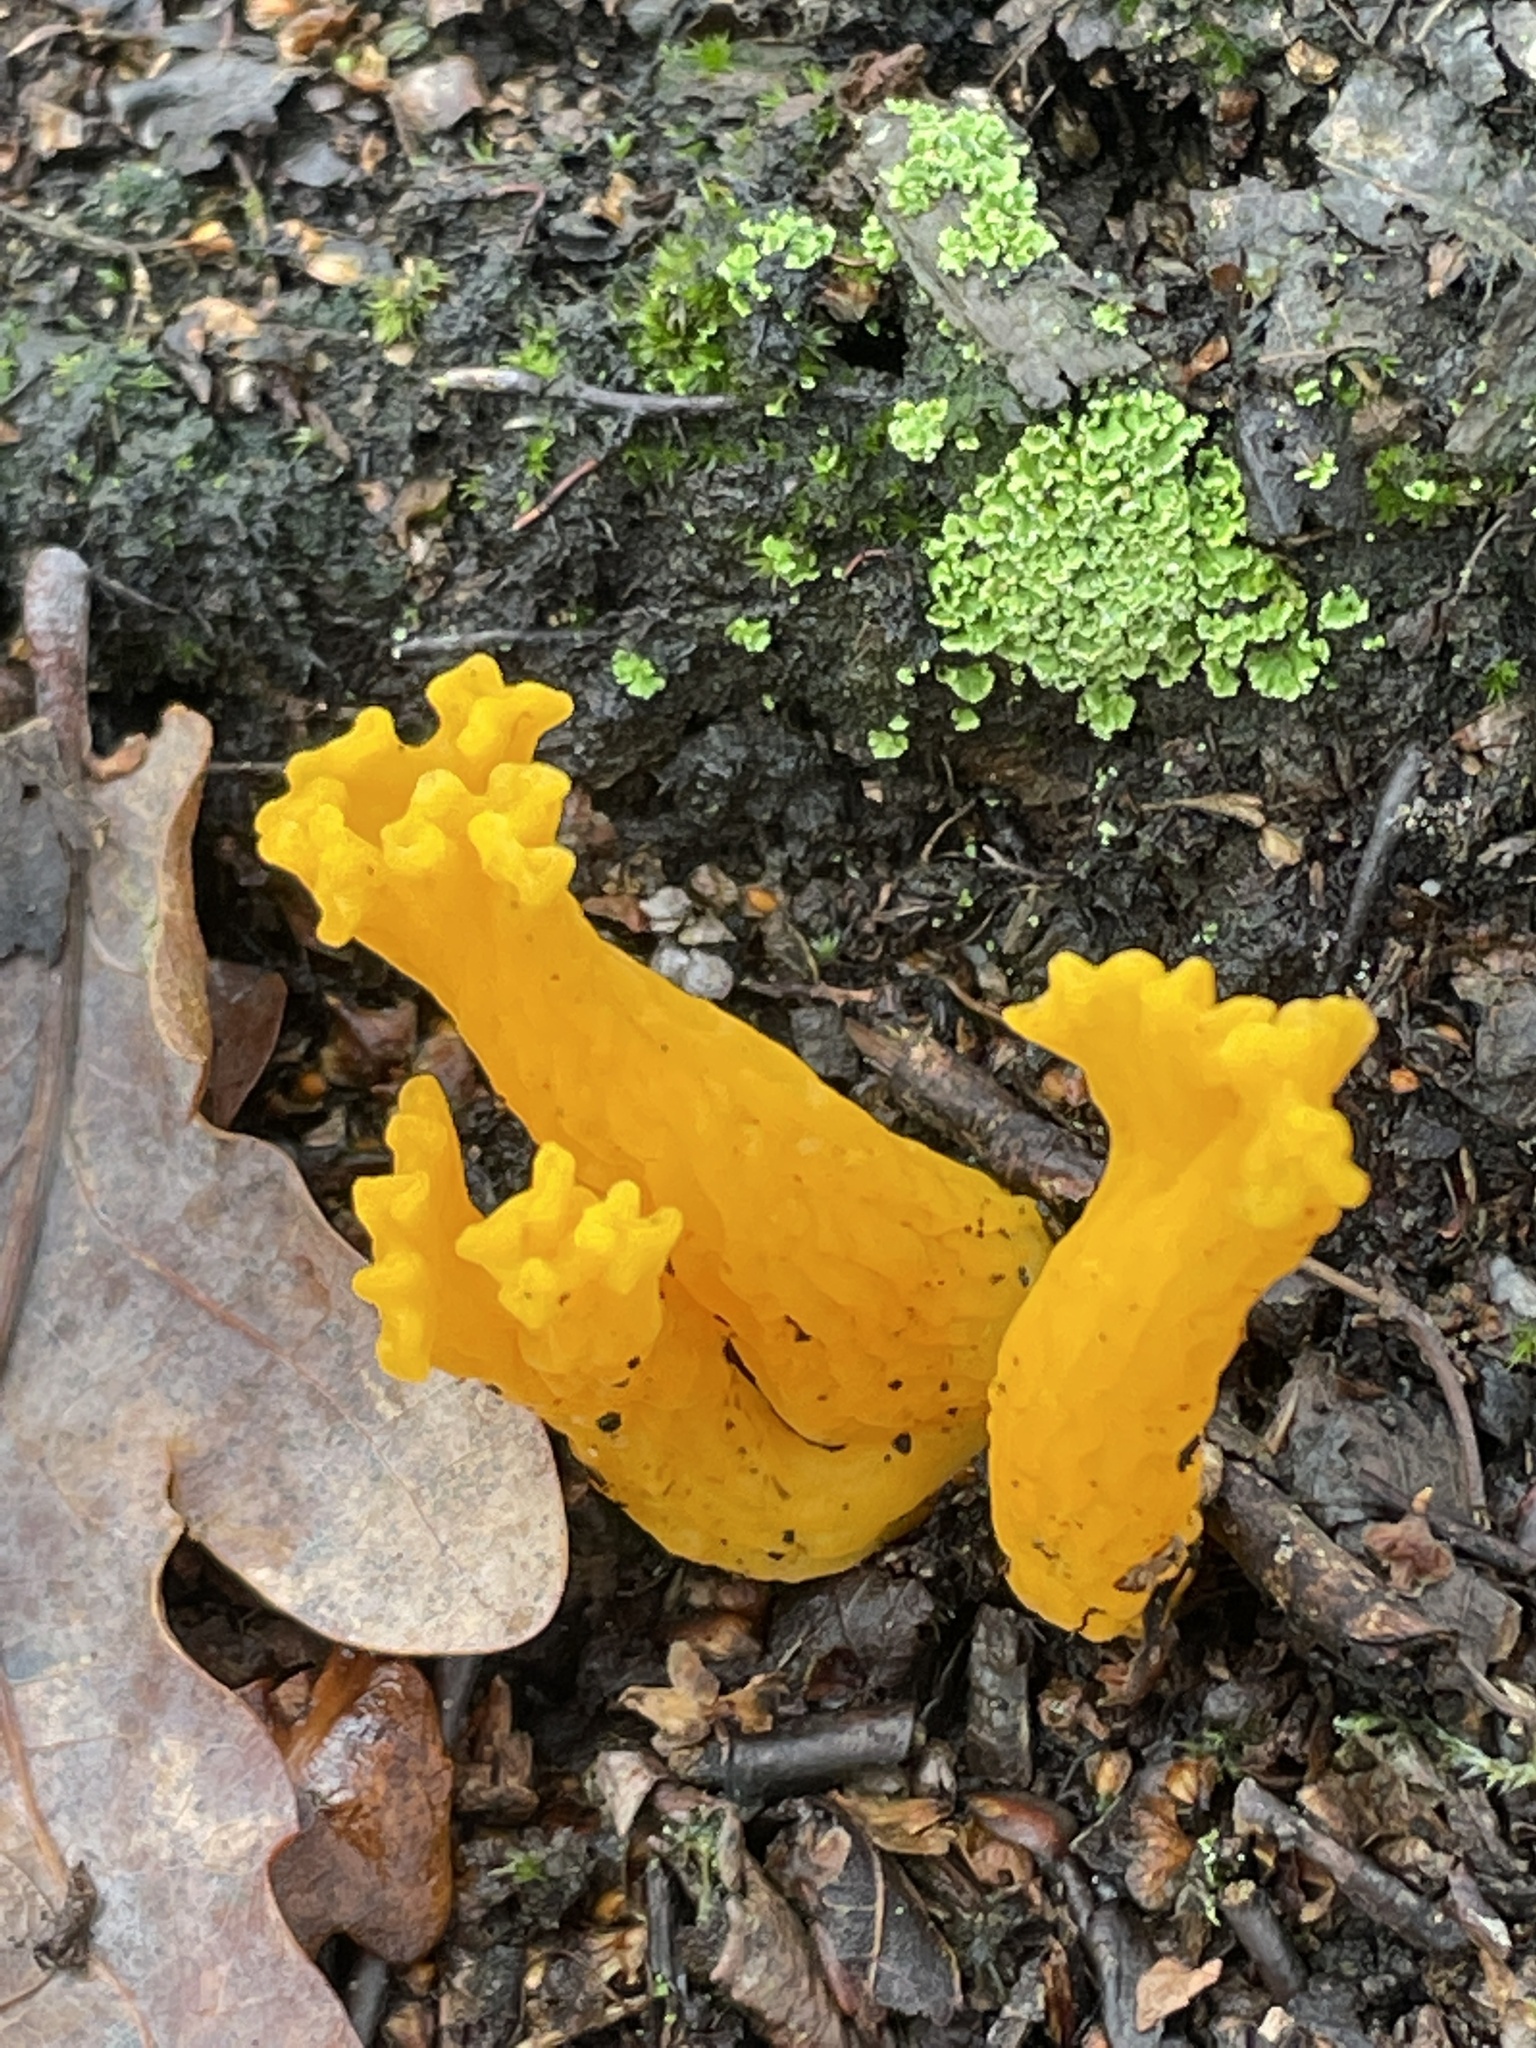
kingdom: Fungi
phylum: Basidiomycota
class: Dacrymycetes
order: Dacrymycetales
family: Dacrymycetaceae
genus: Calocera
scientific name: Calocera viscosa
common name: Yellow stagshorn
